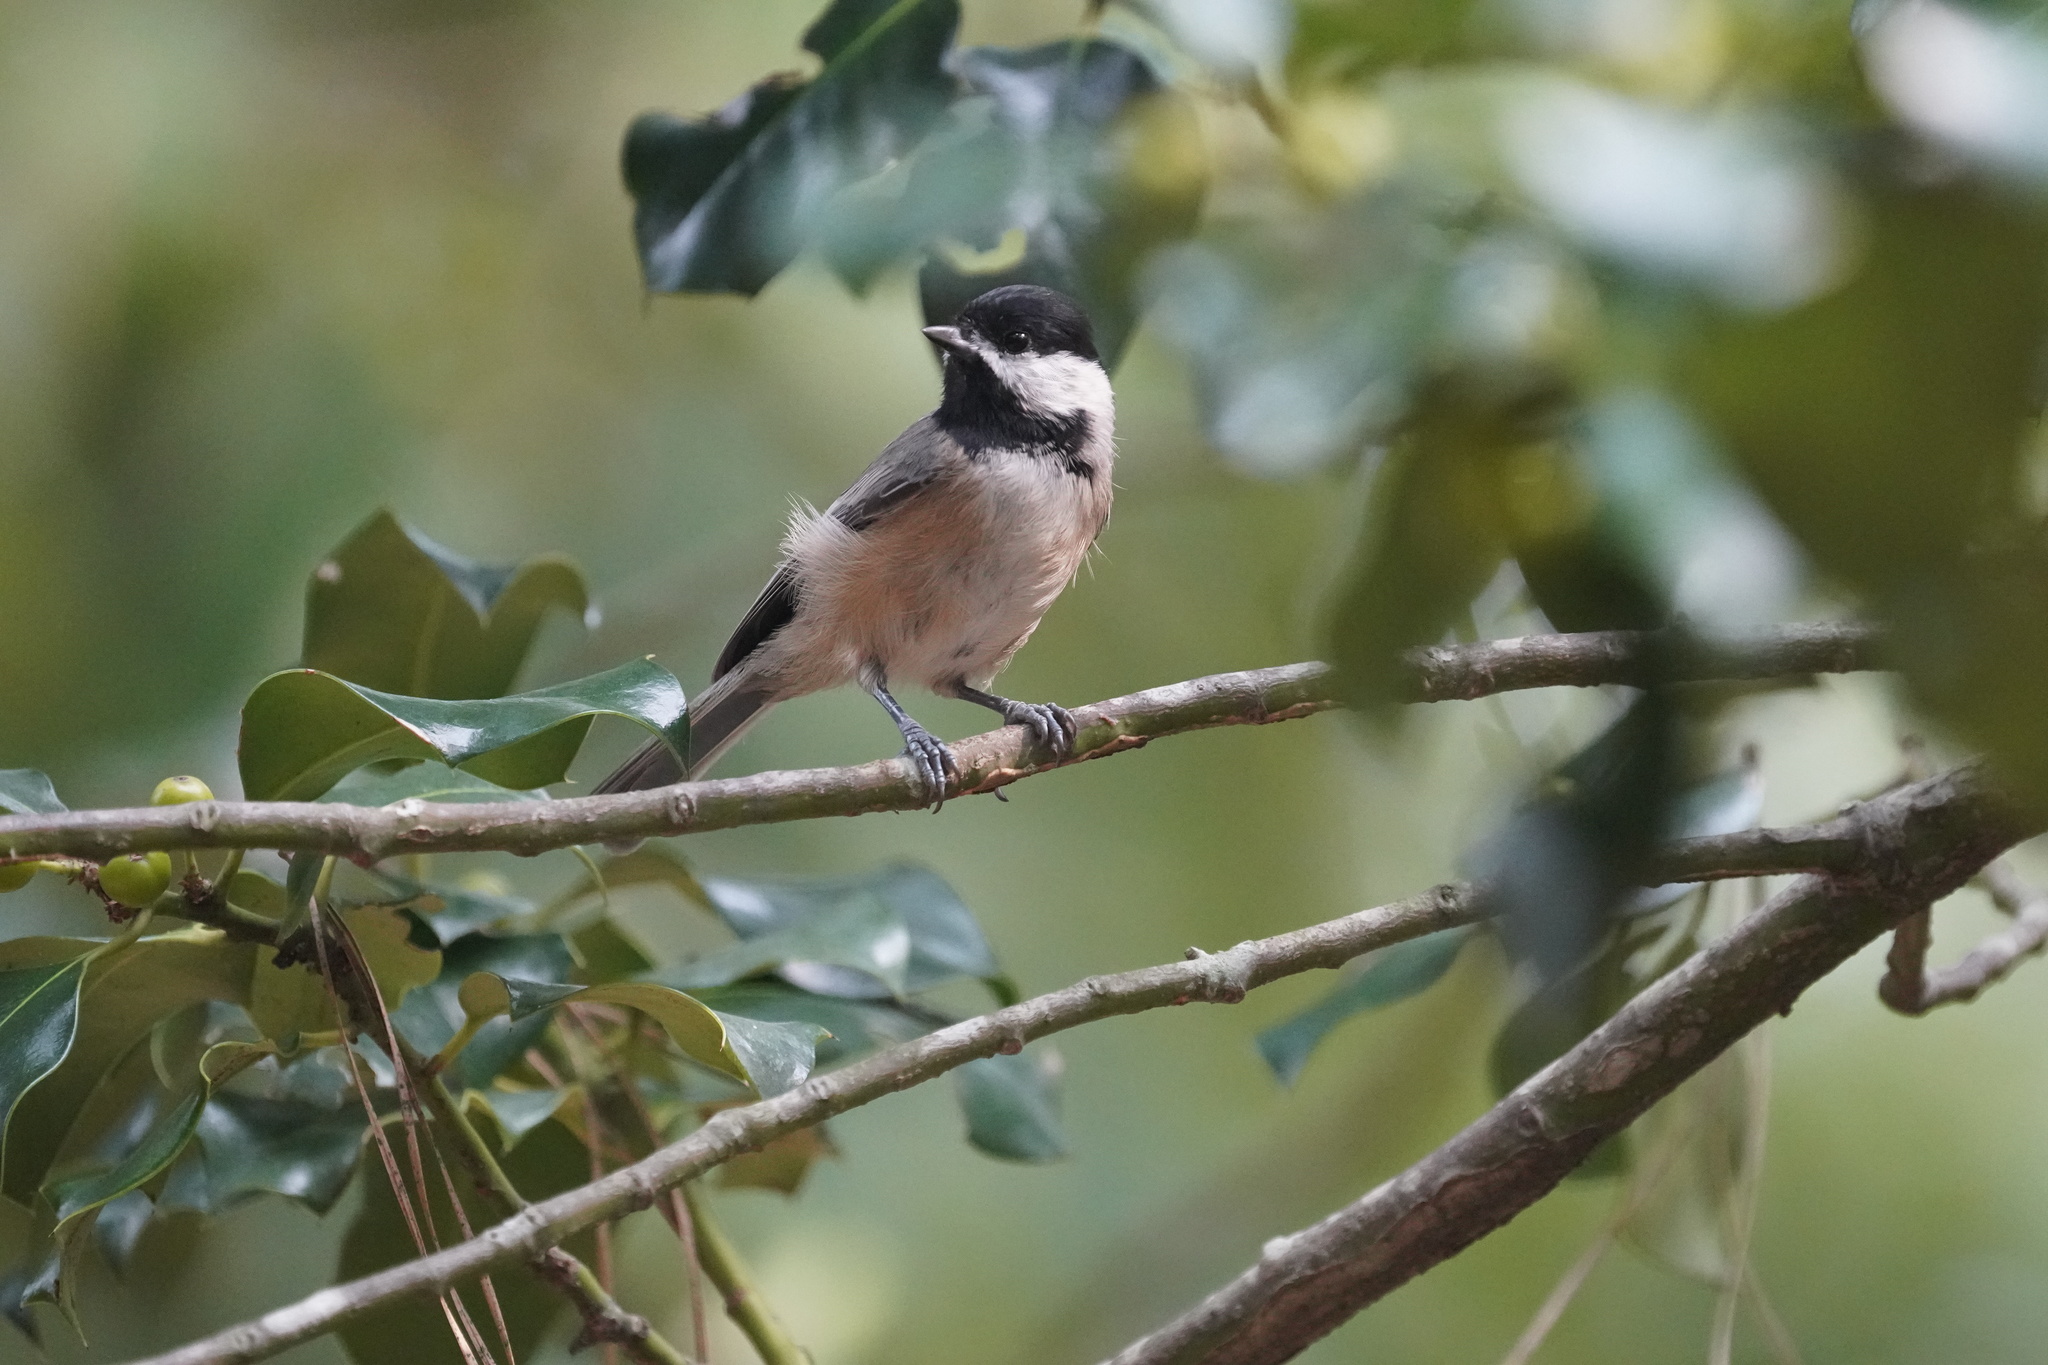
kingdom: Animalia
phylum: Chordata
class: Aves
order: Passeriformes
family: Paridae
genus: Poecile
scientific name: Poecile carolinensis
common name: Carolina chickadee
